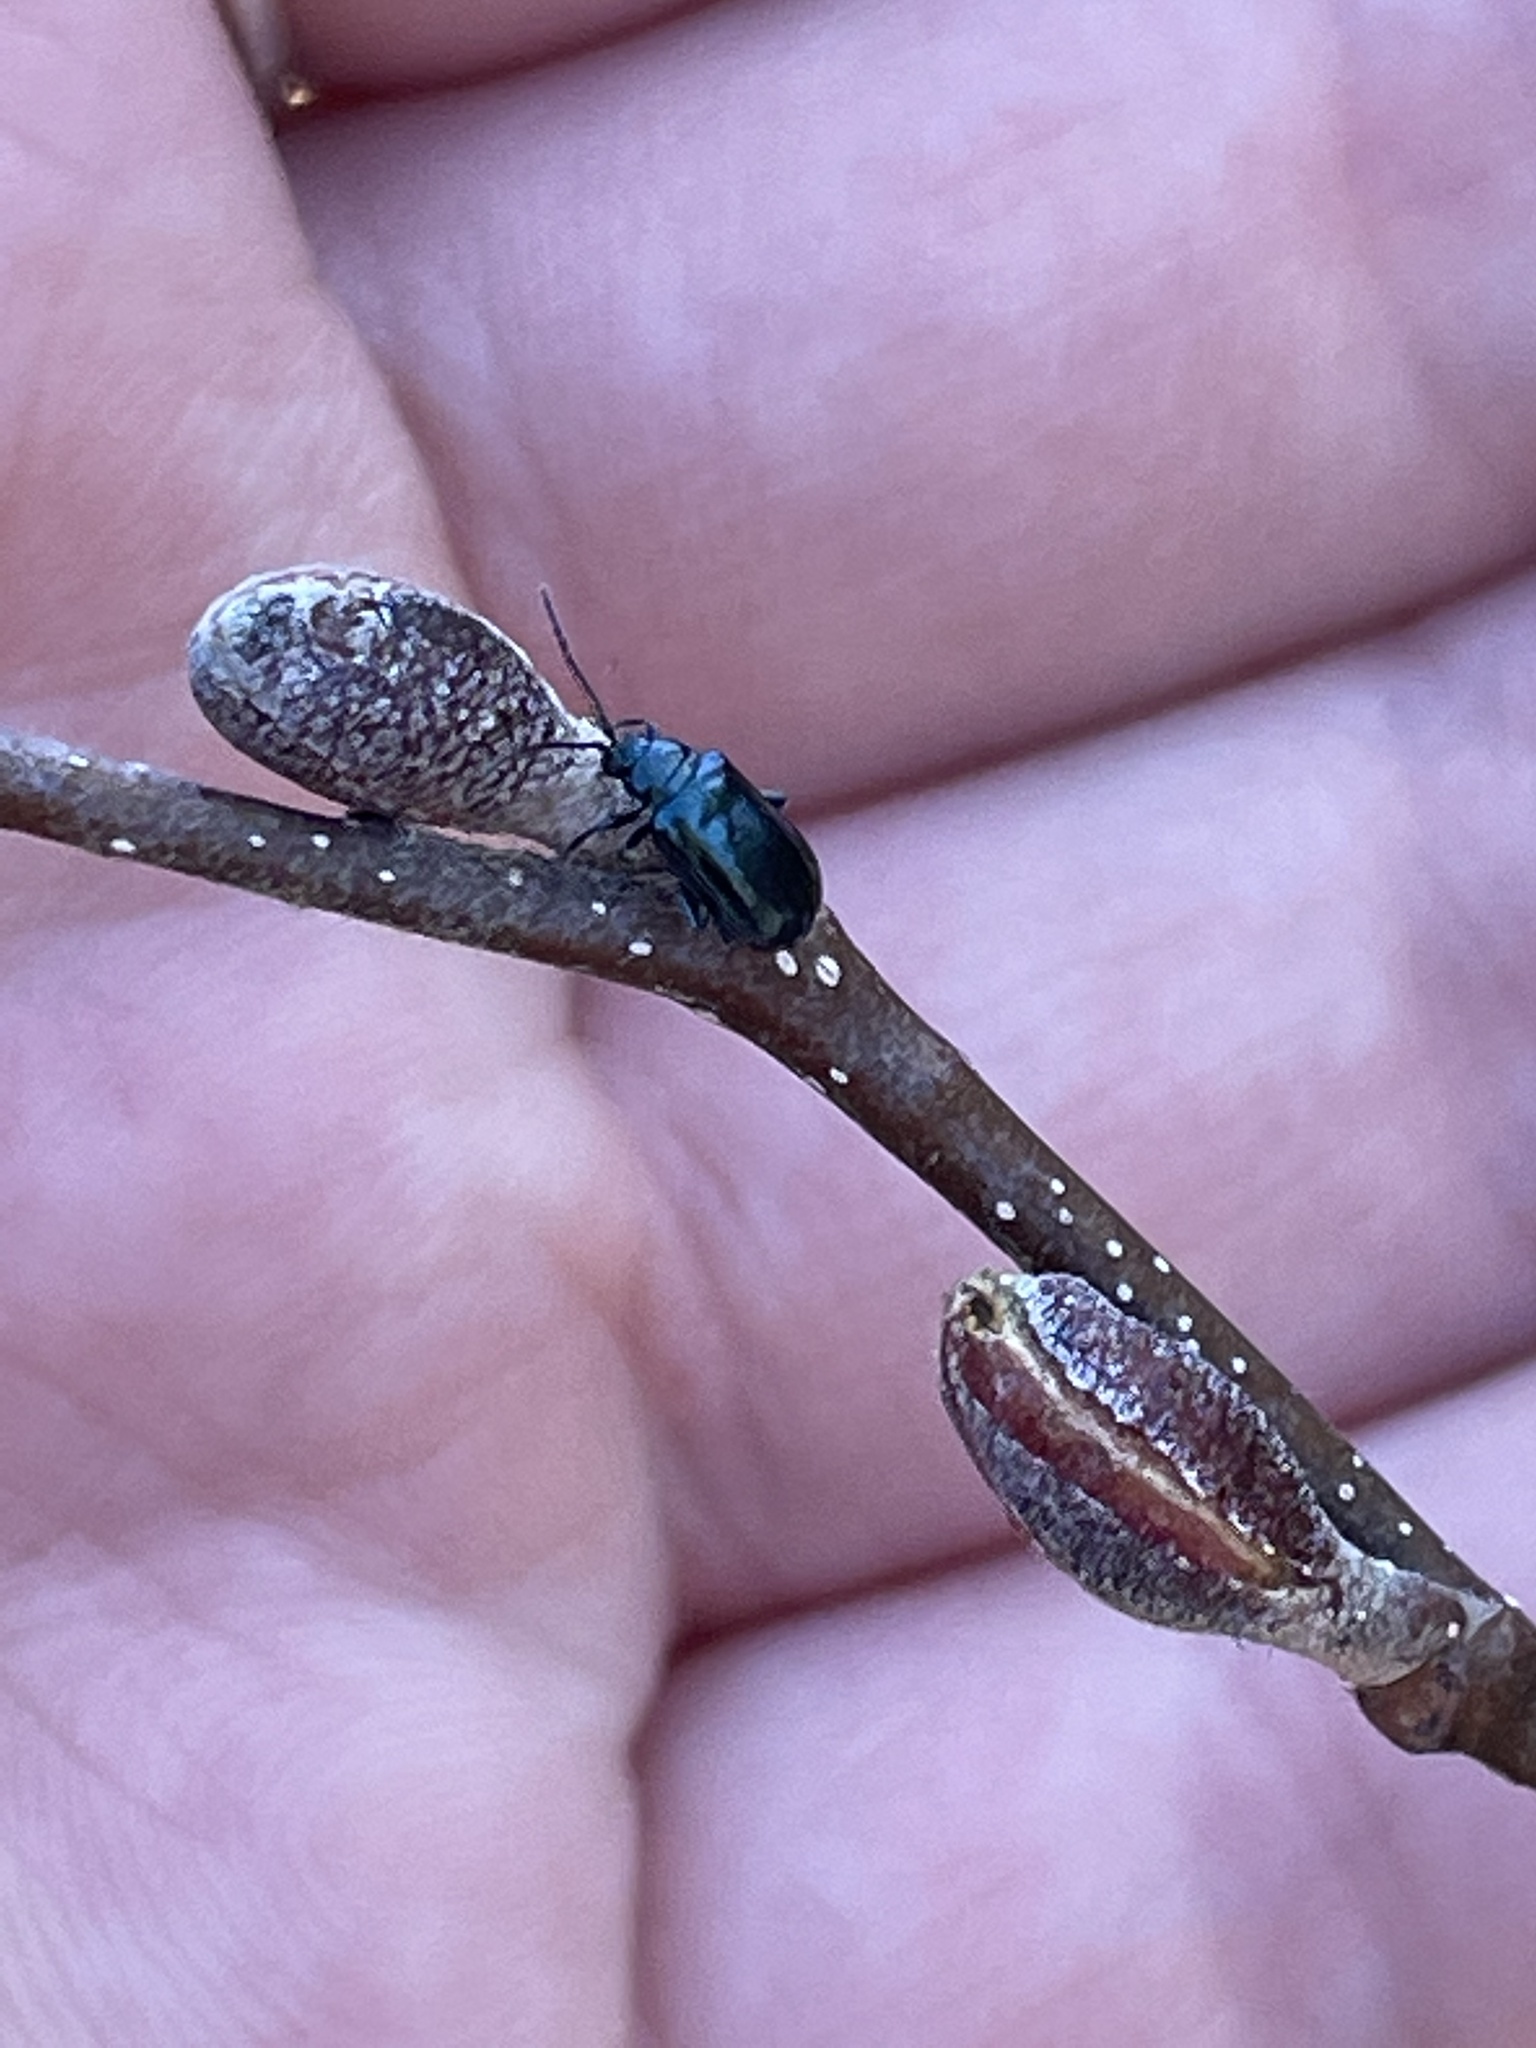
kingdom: Animalia
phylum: Arthropoda
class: Insecta
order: Coleoptera
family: Chrysomelidae
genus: Altica
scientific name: Altica ambiens
